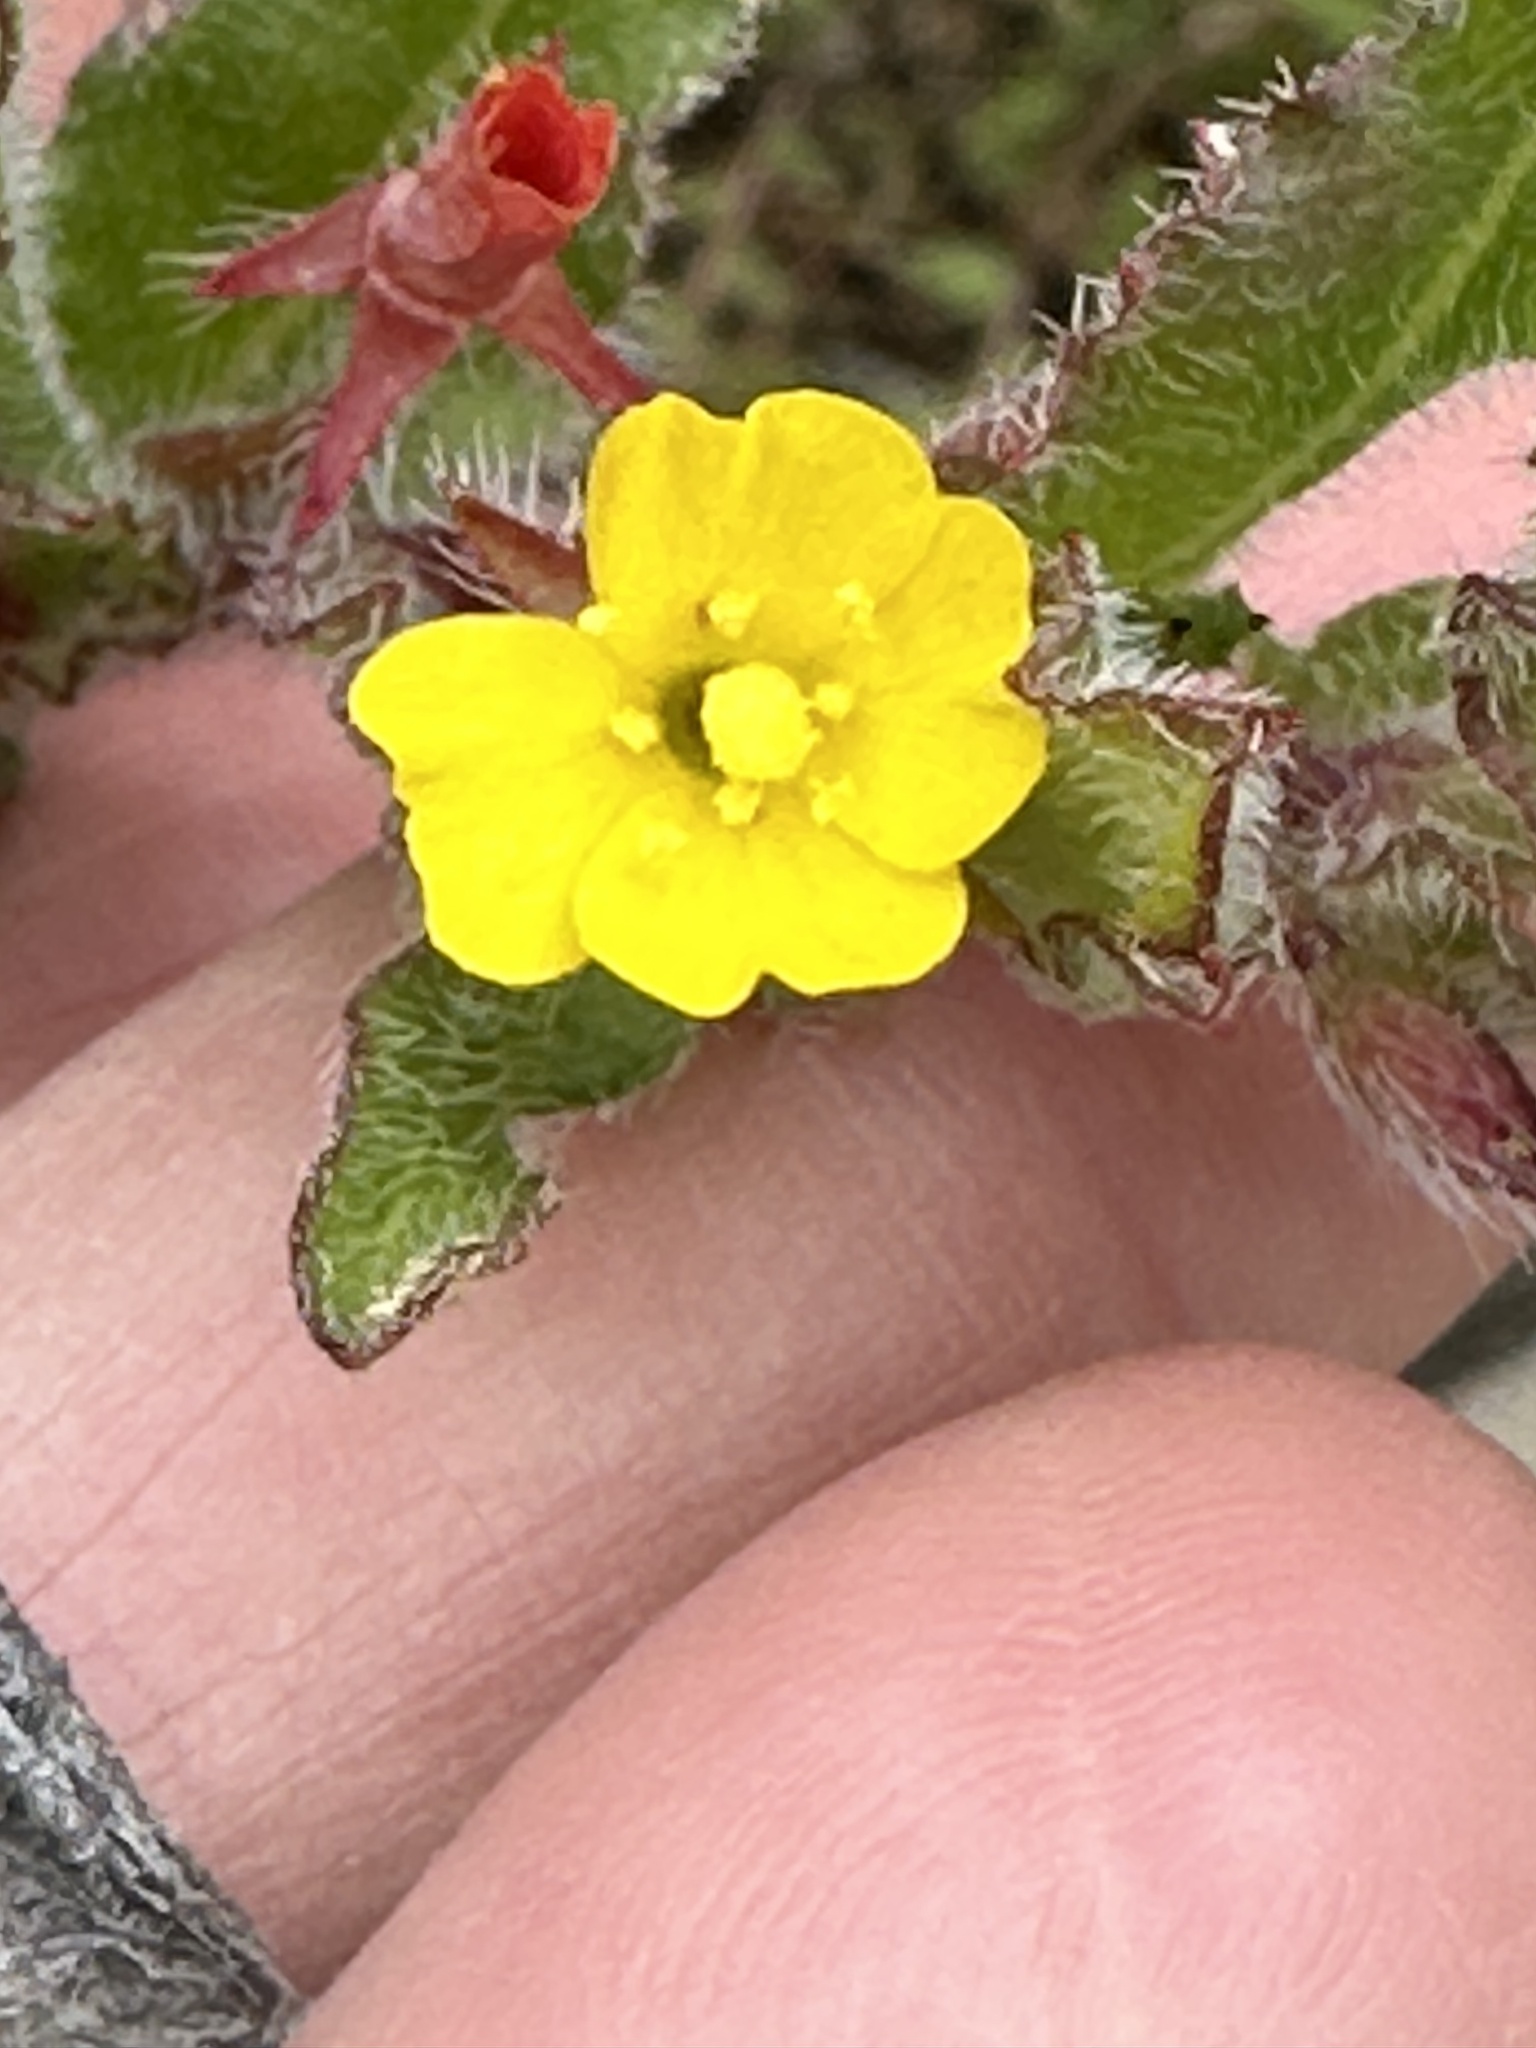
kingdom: Plantae
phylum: Tracheophyta
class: Magnoliopsida
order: Myrtales
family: Onagraceae
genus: Camissoniopsis
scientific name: Camissoniopsis hirtella
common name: Santa cruz island suncup
